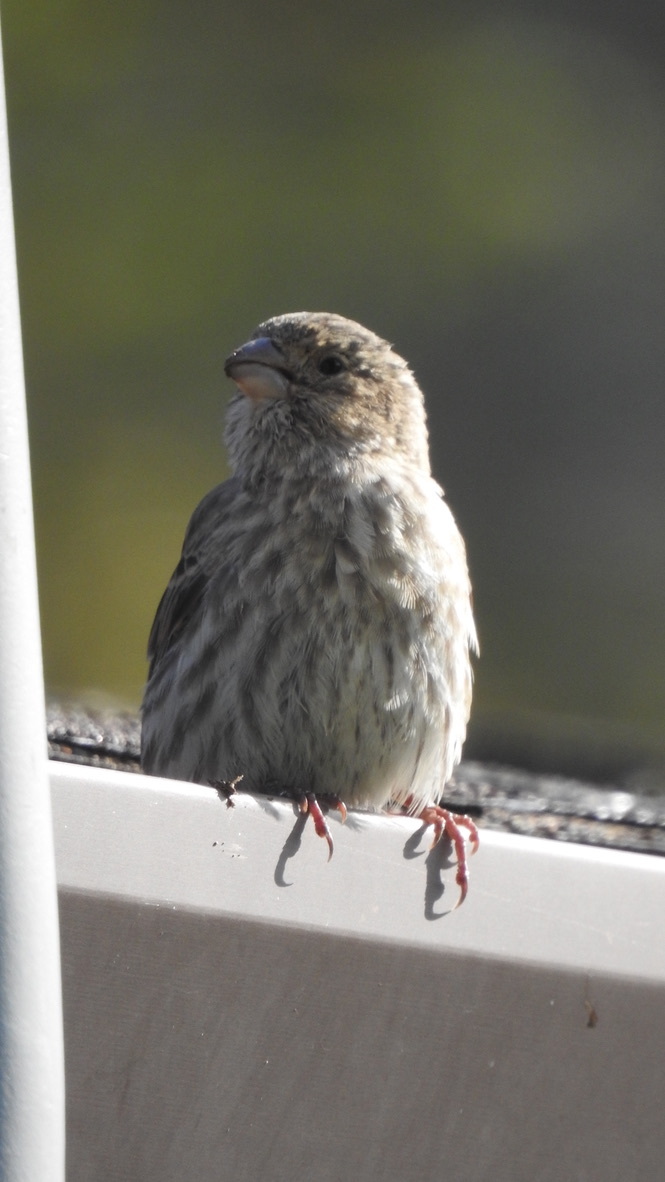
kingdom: Animalia
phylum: Chordata
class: Aves
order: Passeriformes
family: Fringillidae
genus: Haemorhous
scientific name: Haemorhous mexicanus
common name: House finch
